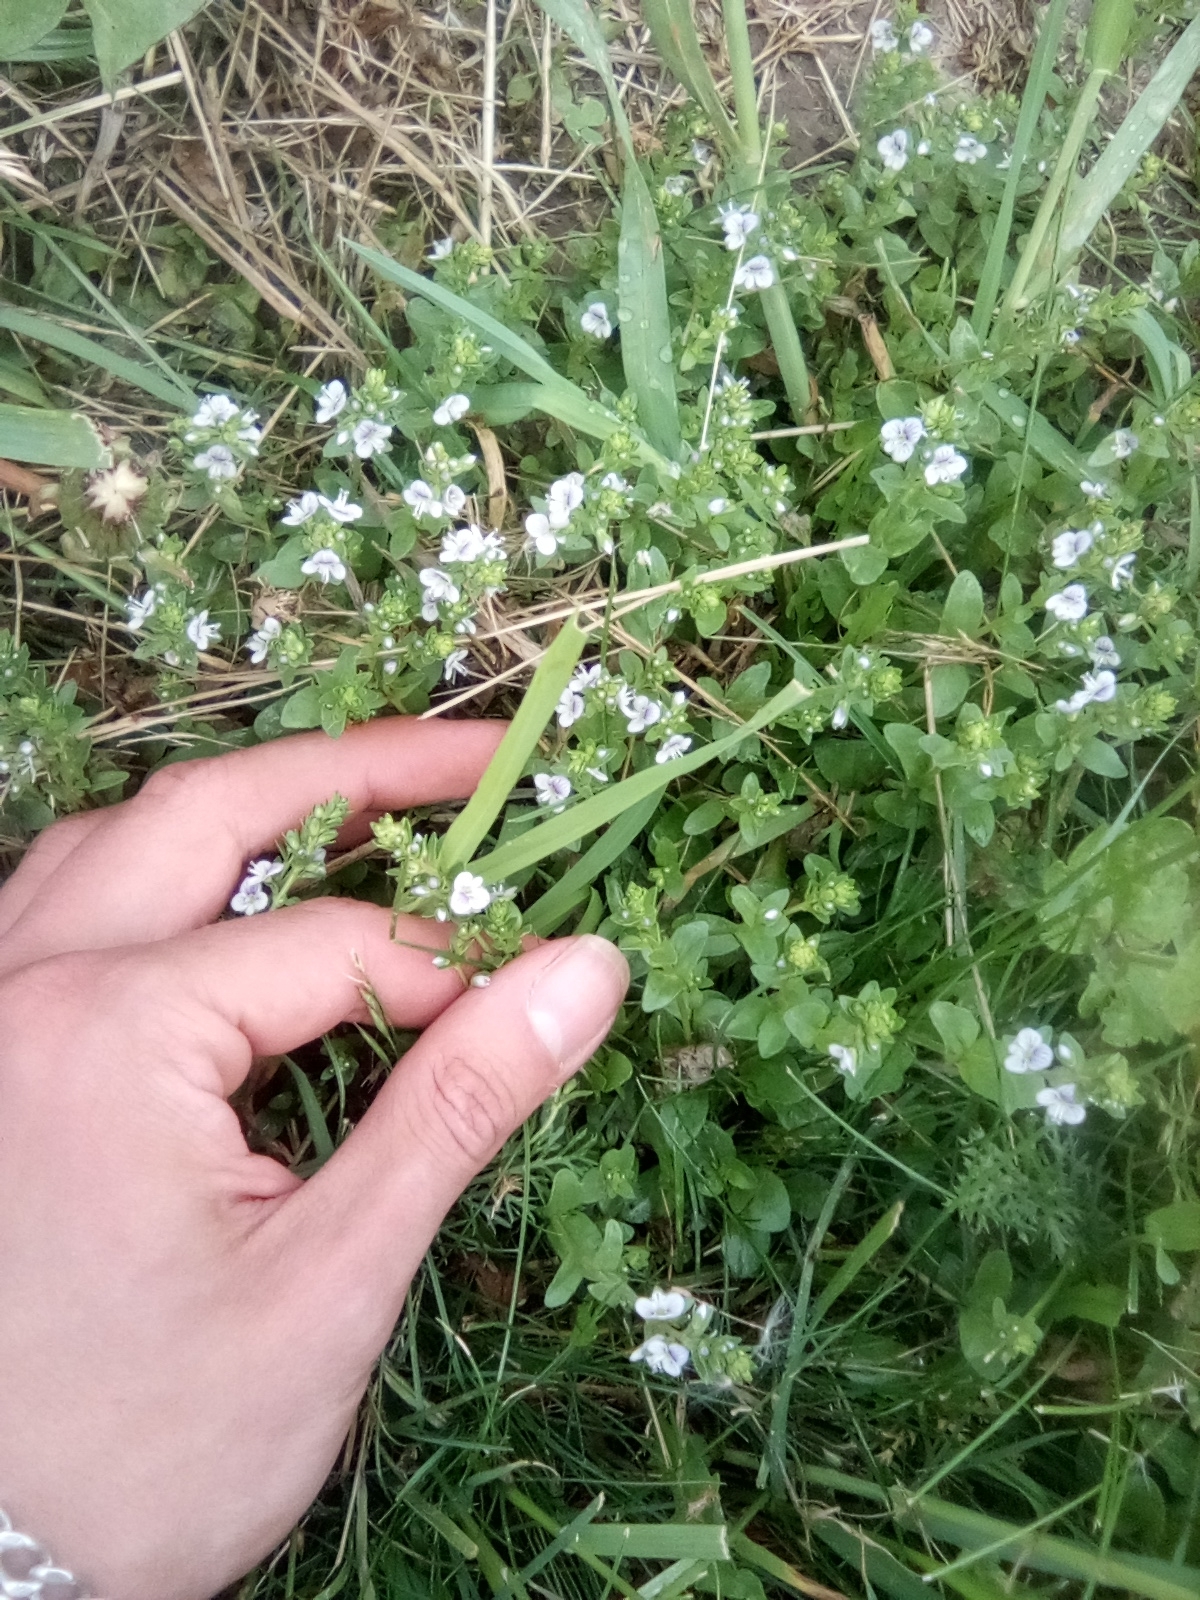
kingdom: Plantae
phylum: Tracheophyta
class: Magnoliopsida
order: Lamiales
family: Plantaginaceae
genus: Veronica
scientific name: Veronica serpyllifolia
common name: Thyme-leaved speedwell
